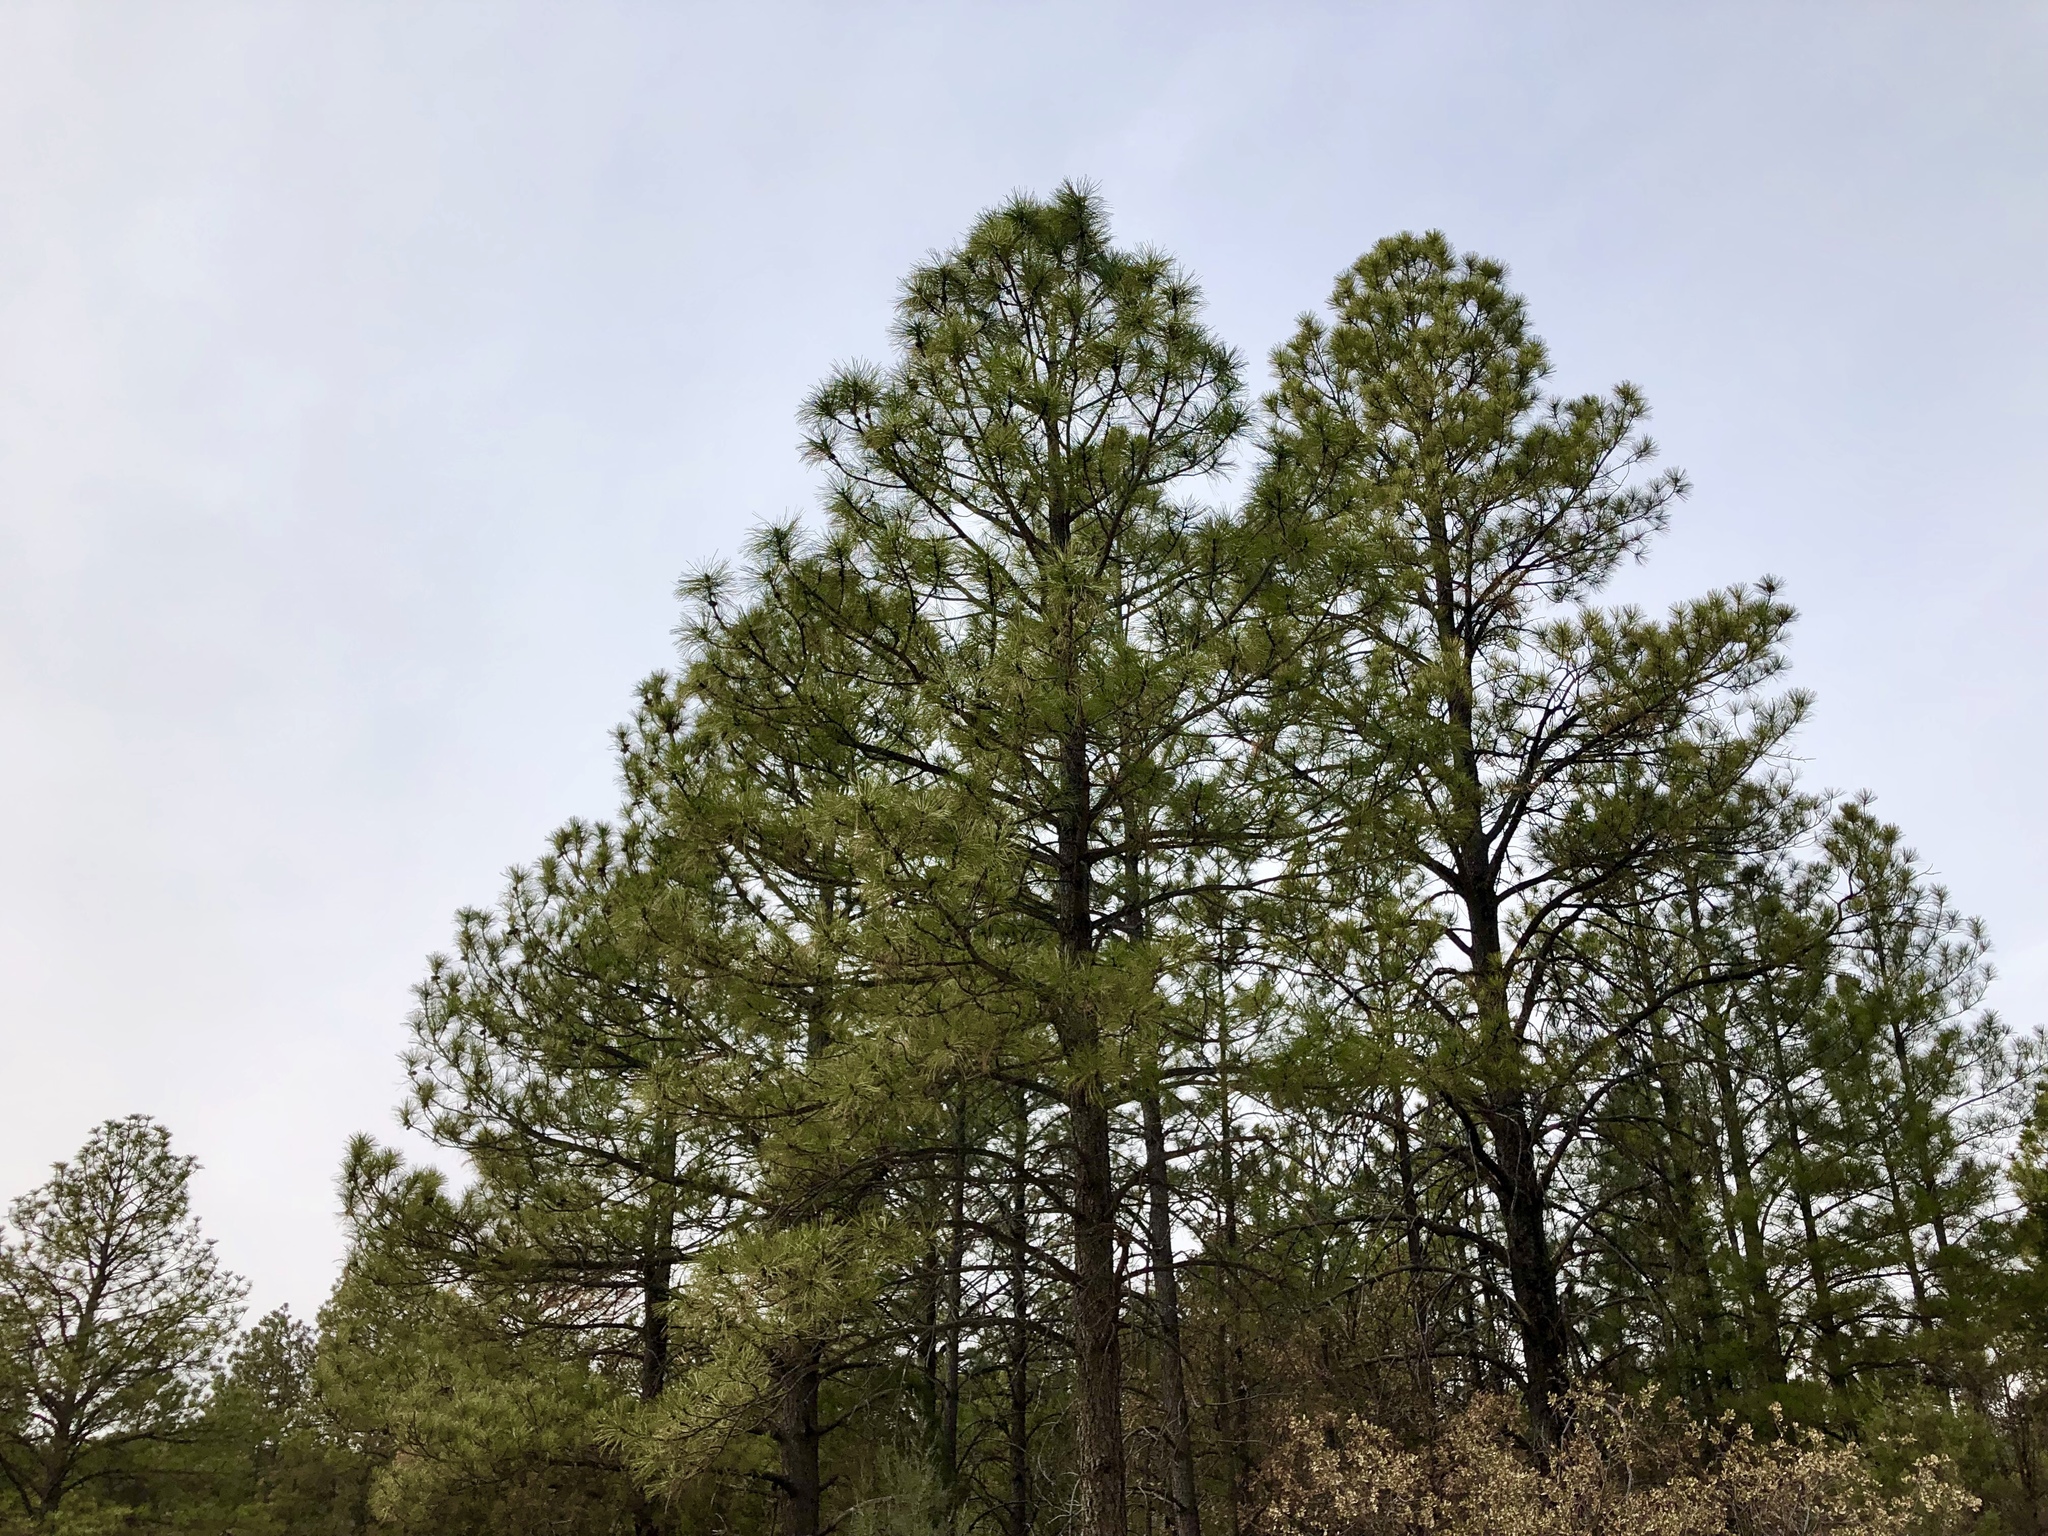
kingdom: Plantae
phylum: Tracheophyta
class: Pinopsida
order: Pinales
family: Pinaceae
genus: Pinus
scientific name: Pinus ponderosa
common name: Western yellow-pine
